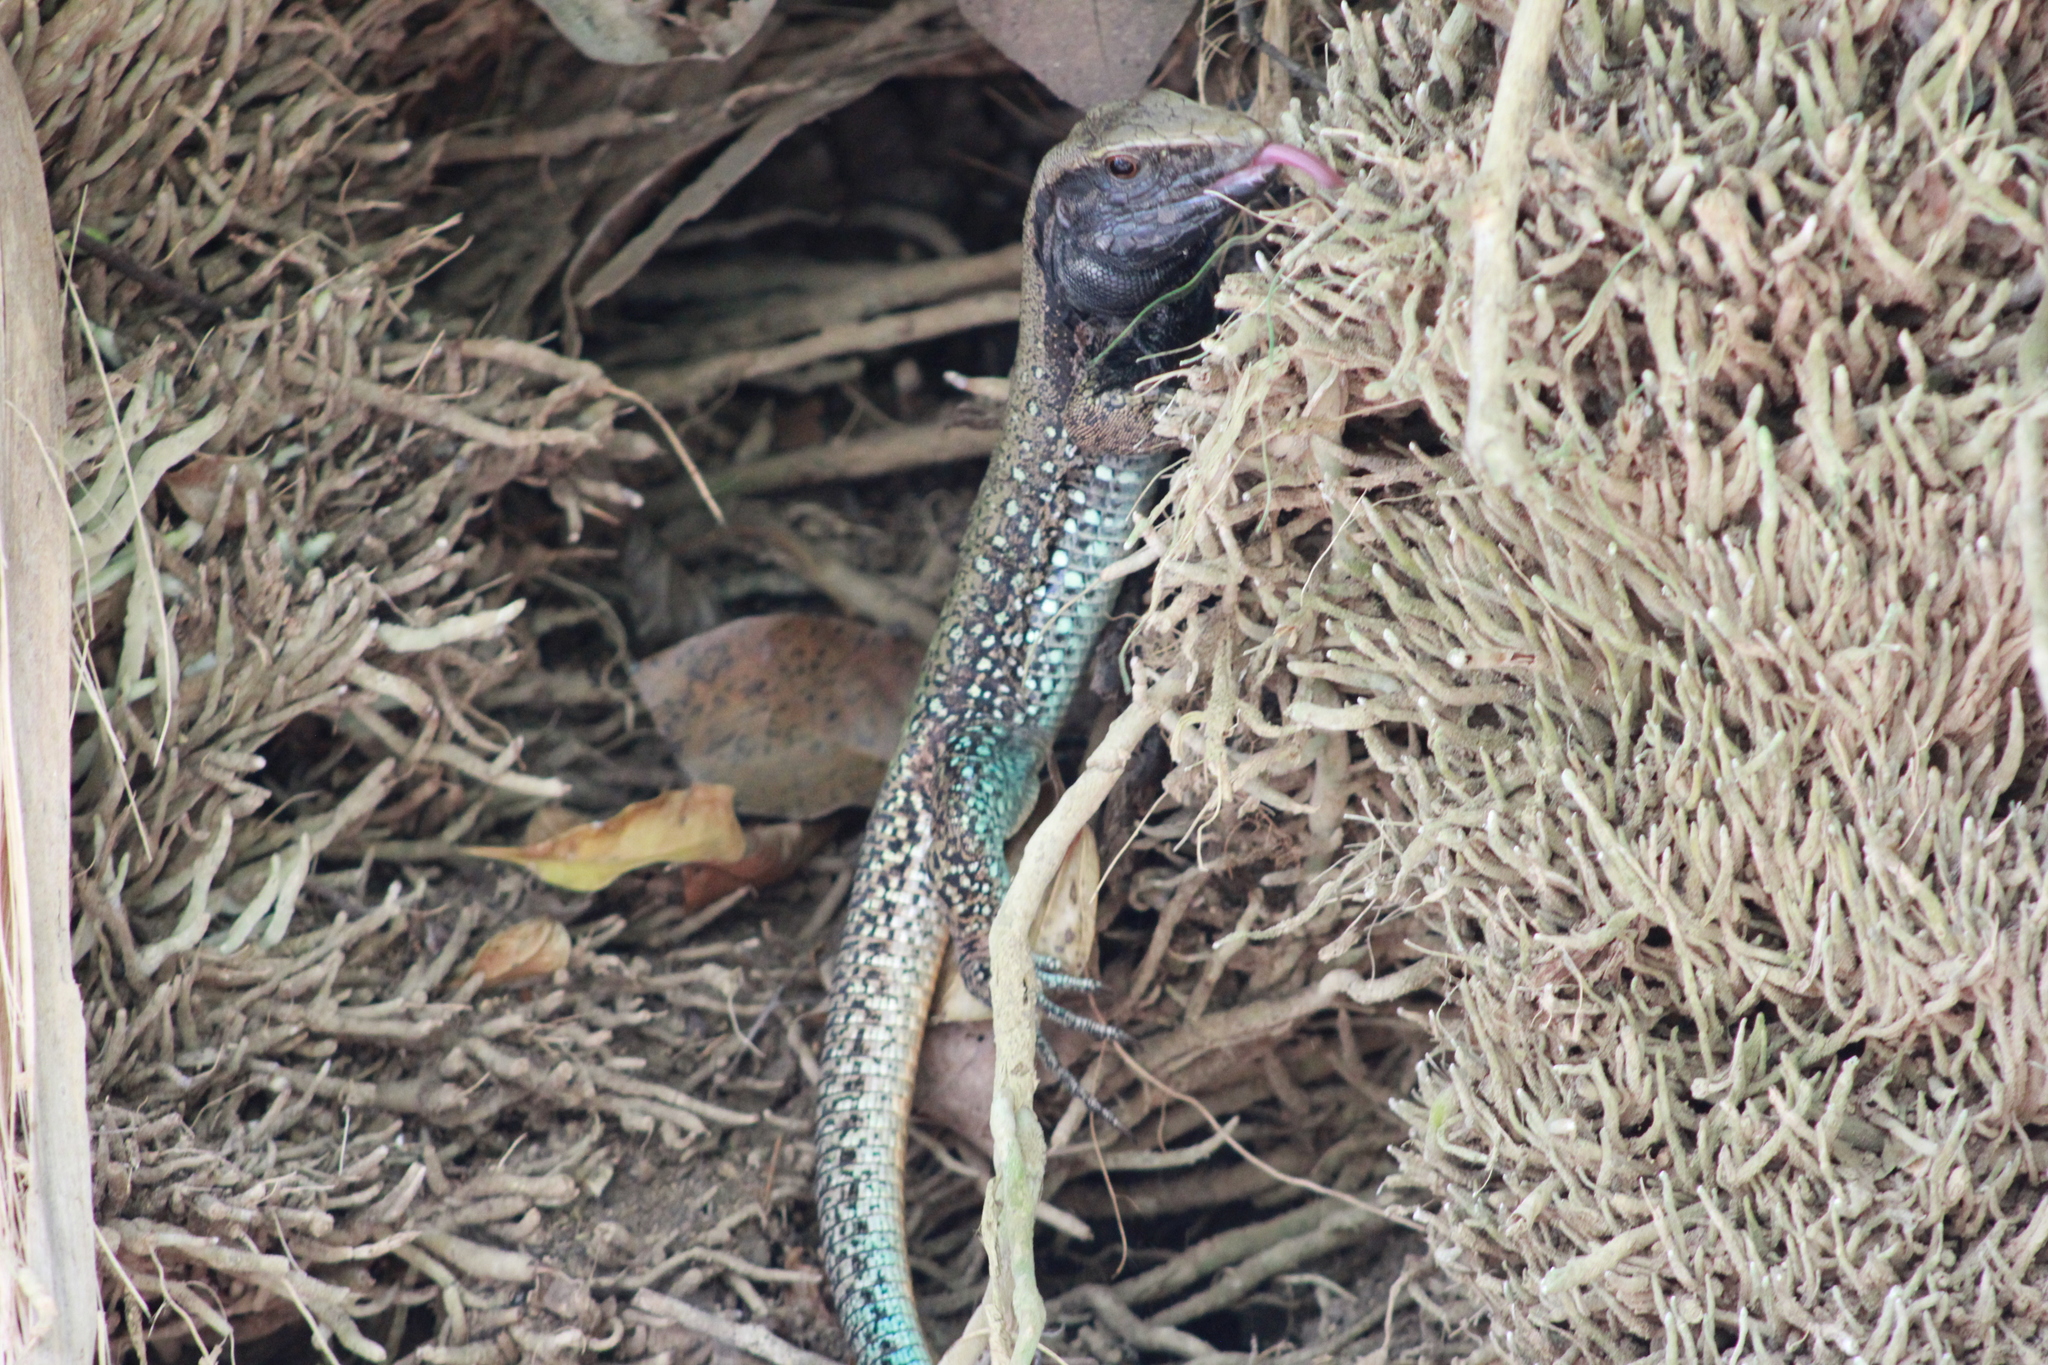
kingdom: Animalia
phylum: Chordata
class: Squamata
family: Teiidae
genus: Ameiva
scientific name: Ameiva atrigularis
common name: Venezuelan ameiva
